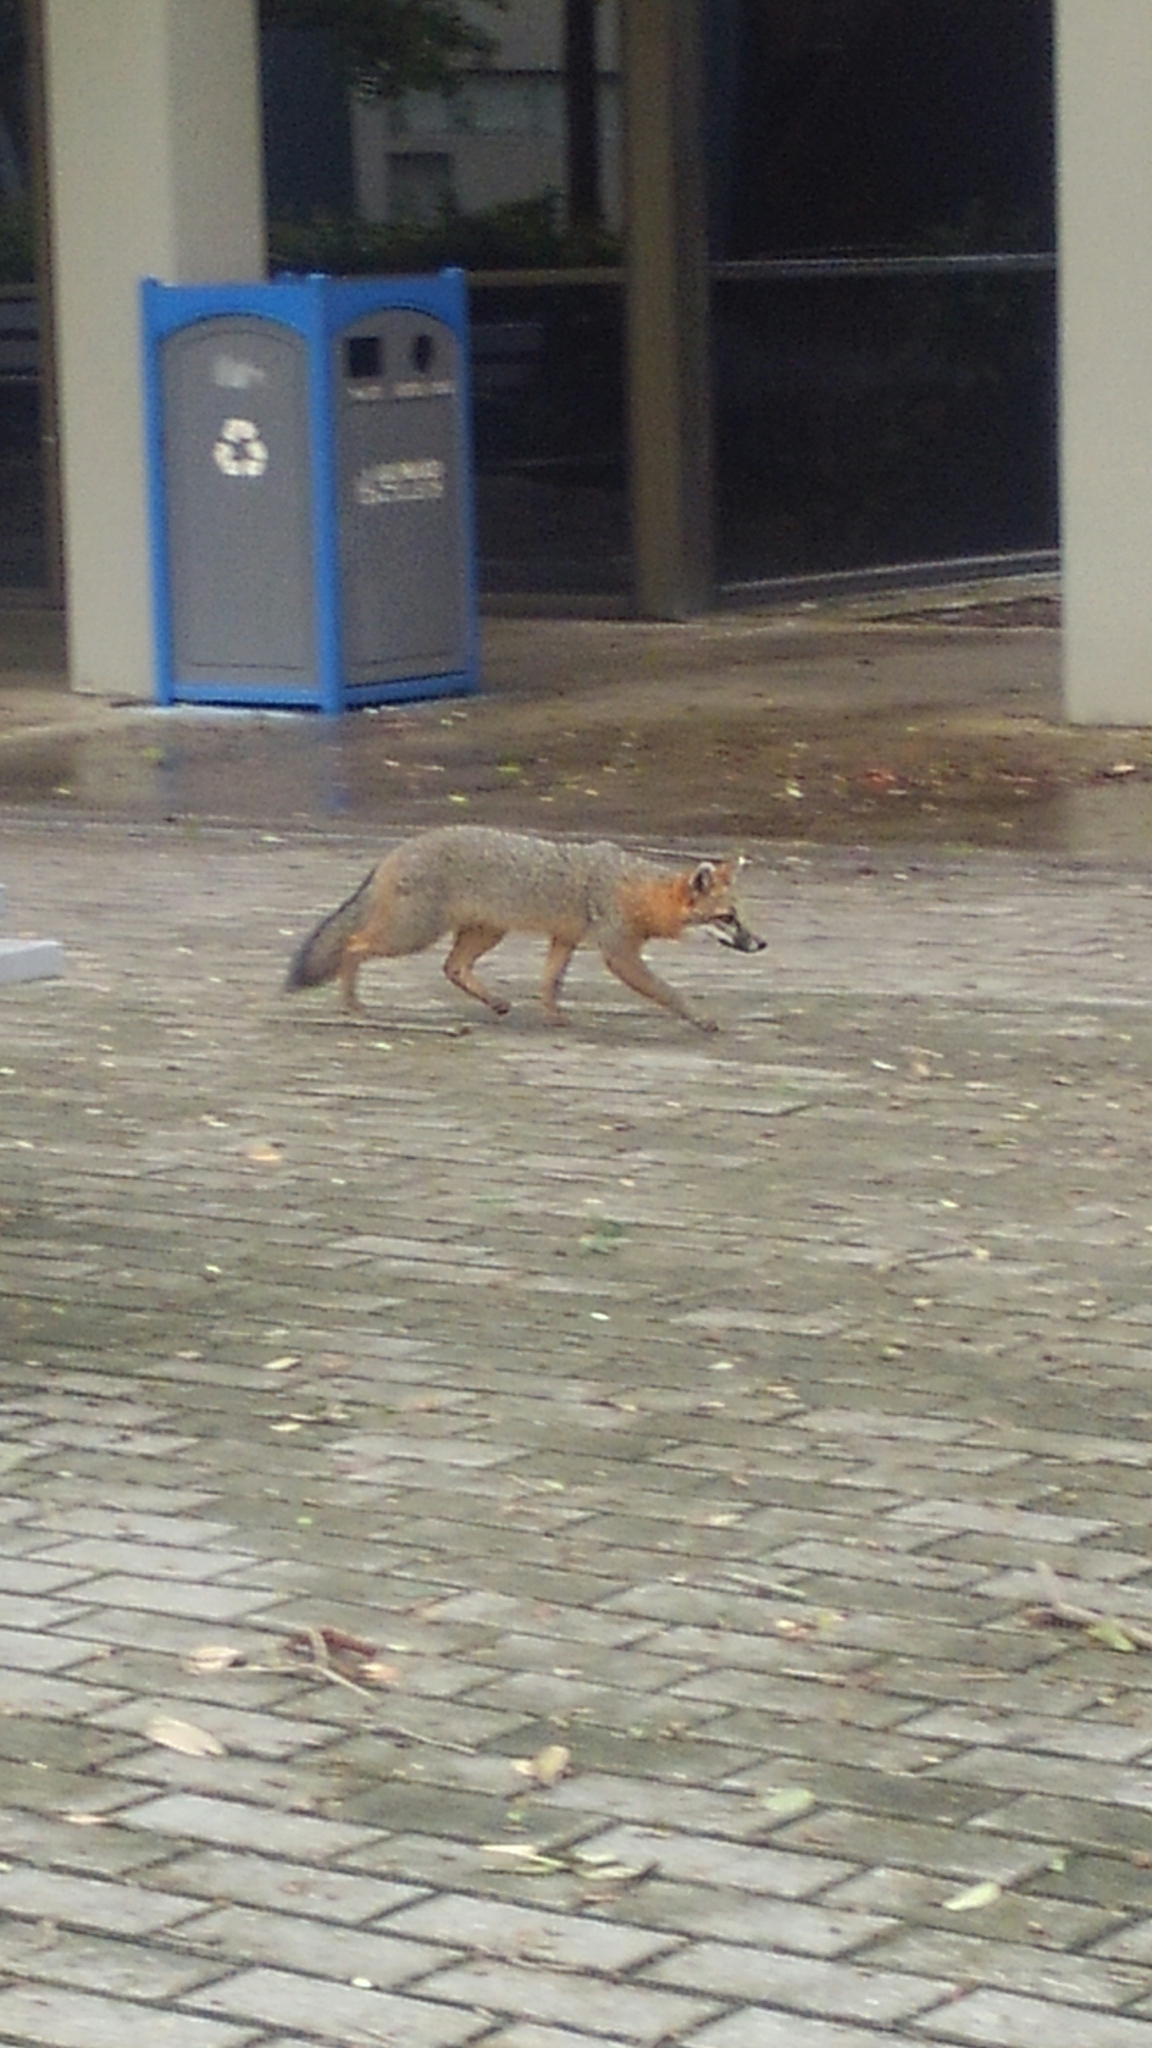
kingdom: Animalia
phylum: Chordata
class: Mammalia
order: Carnivora
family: Canidae
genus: Urocyon
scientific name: Urocyon cinereoargenteus
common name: Gray fox
